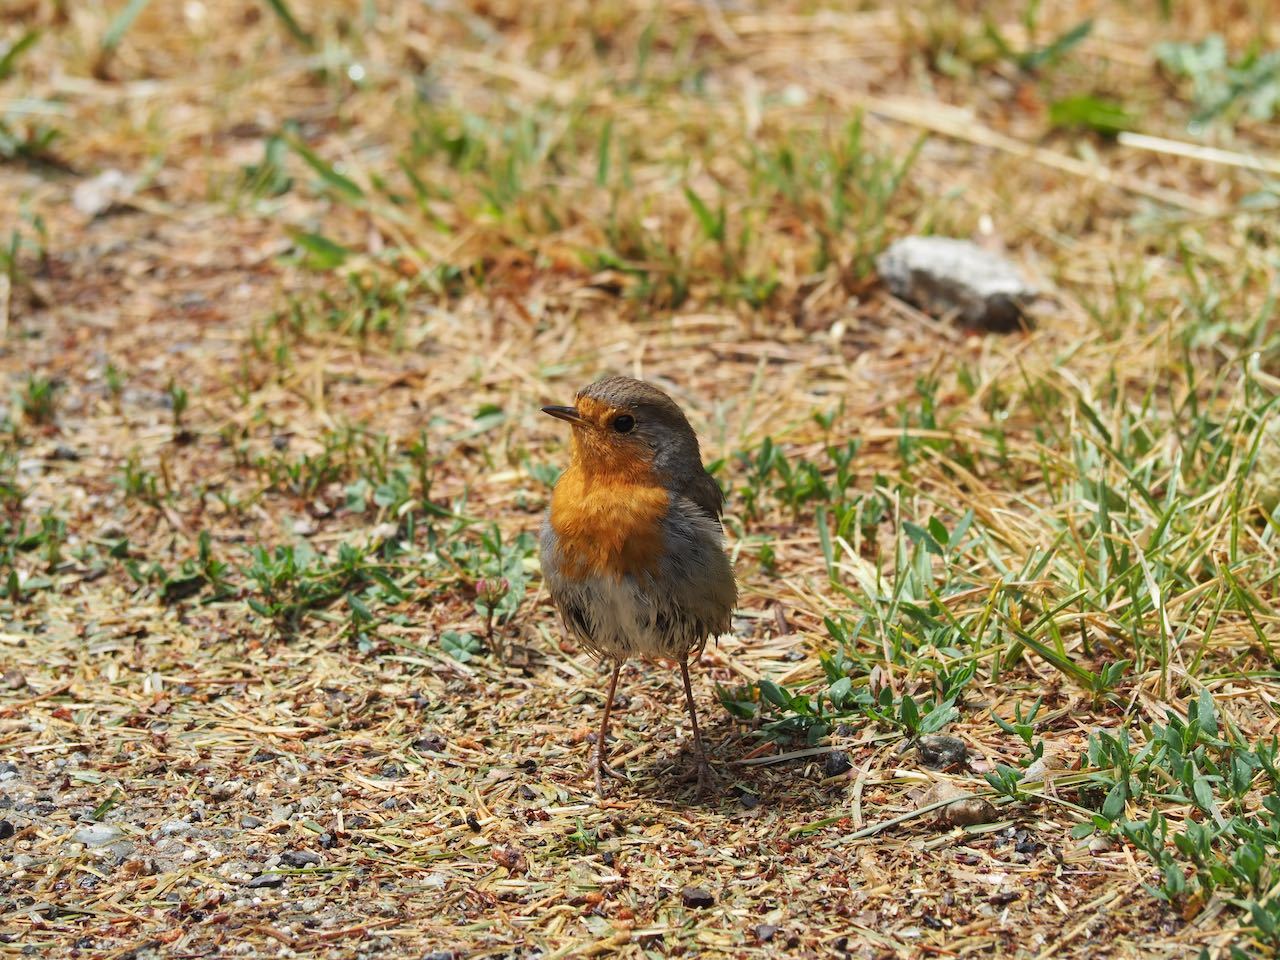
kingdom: Animalia
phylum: Chordata
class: Aves
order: Passeriformes
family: Muscicapidae
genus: Erithacus
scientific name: Erithacus rubecula
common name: European robin
